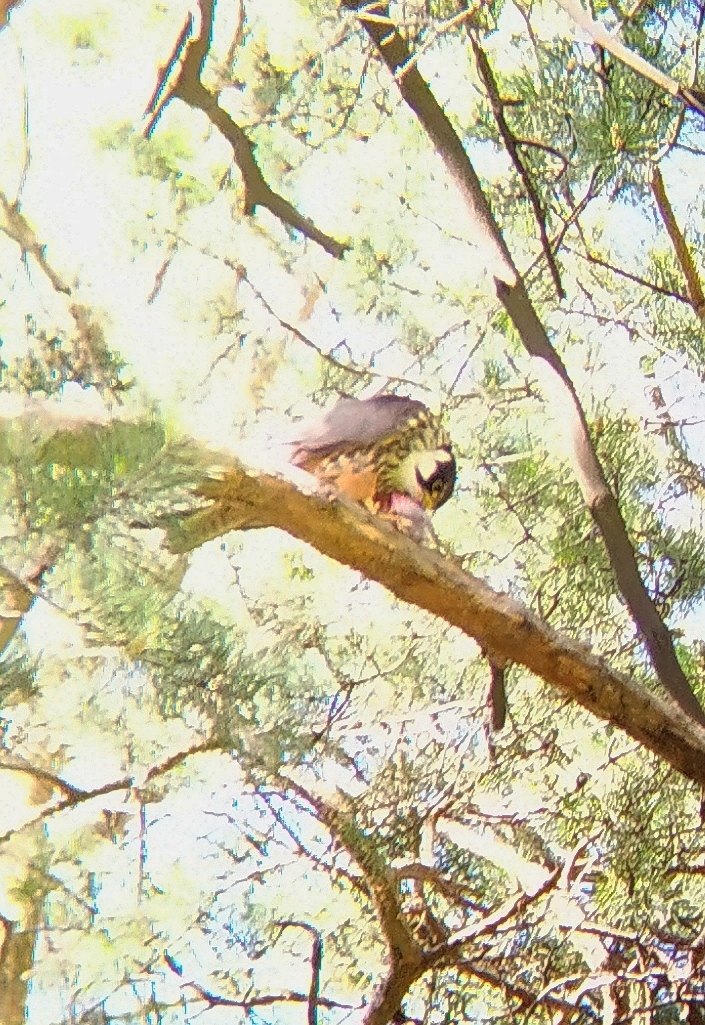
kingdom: Animalia
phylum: Chordata
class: Aves
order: Falconiformes
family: Falconidae
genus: Falco
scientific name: Falco subbuteo
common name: Eurasian hobby
